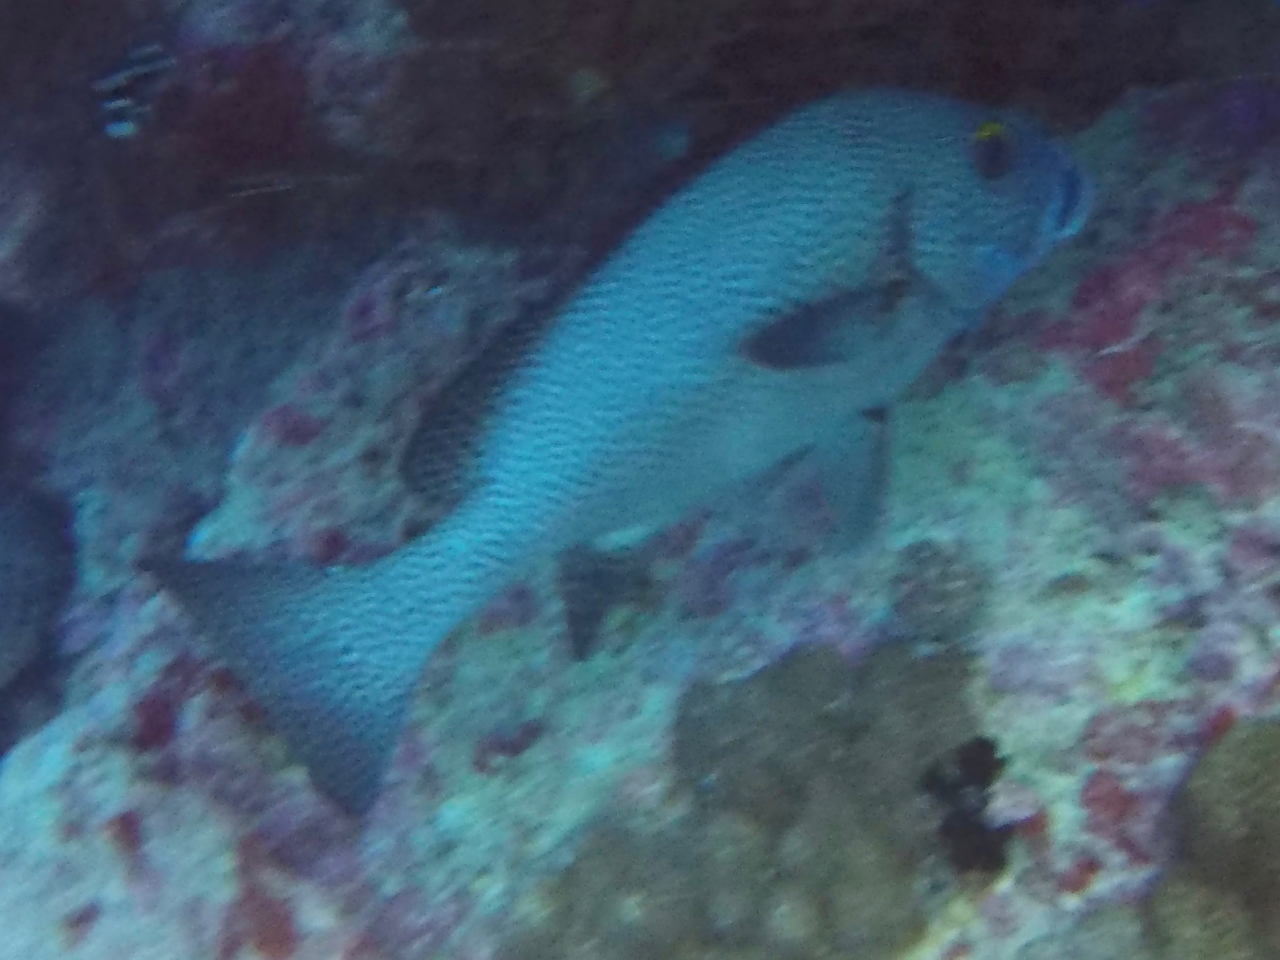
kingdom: Animalia
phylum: Chordata
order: Perciformes
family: Haemulidae
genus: Plectorhinchus
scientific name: Plectorhinchus picus
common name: Spotted sweetlips
